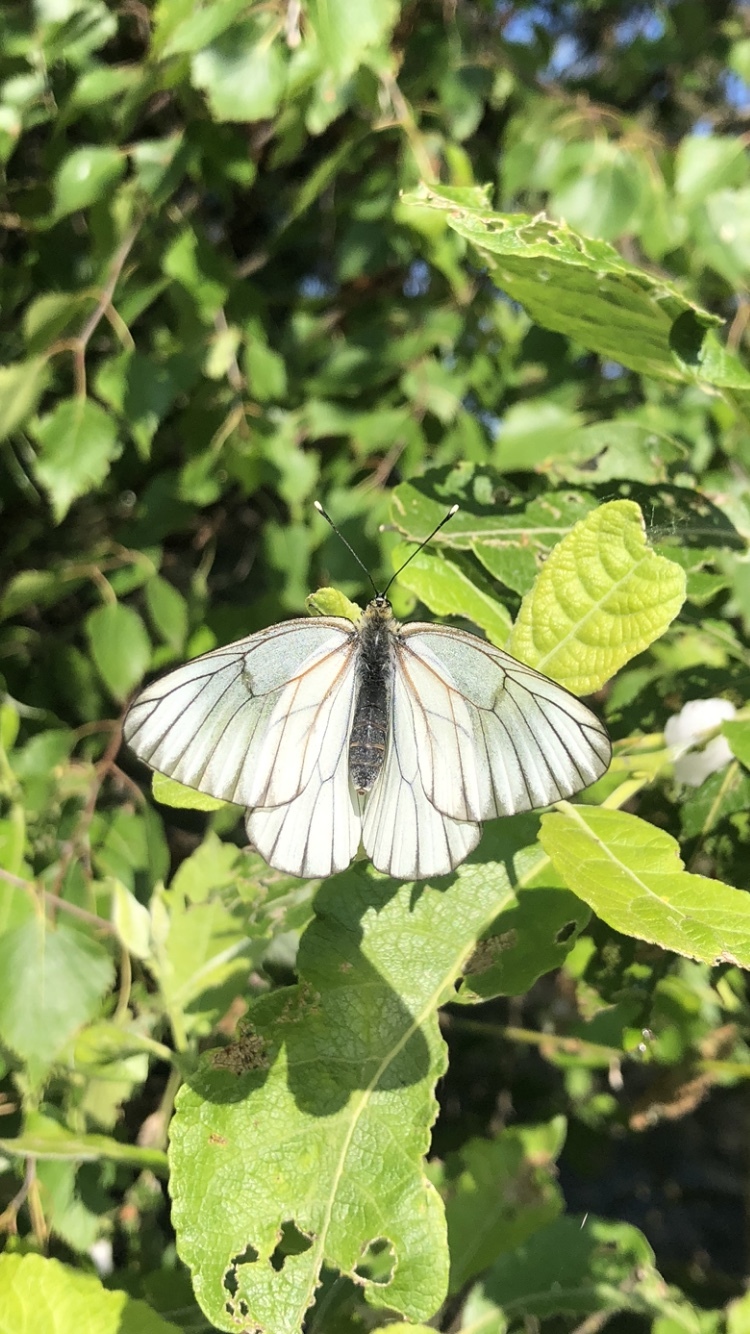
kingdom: Animalia
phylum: Arthropoda
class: Insecta
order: Lepidoptera
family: Pieridae
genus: Aporia
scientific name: Aporia crataegi
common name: Black-veined white
